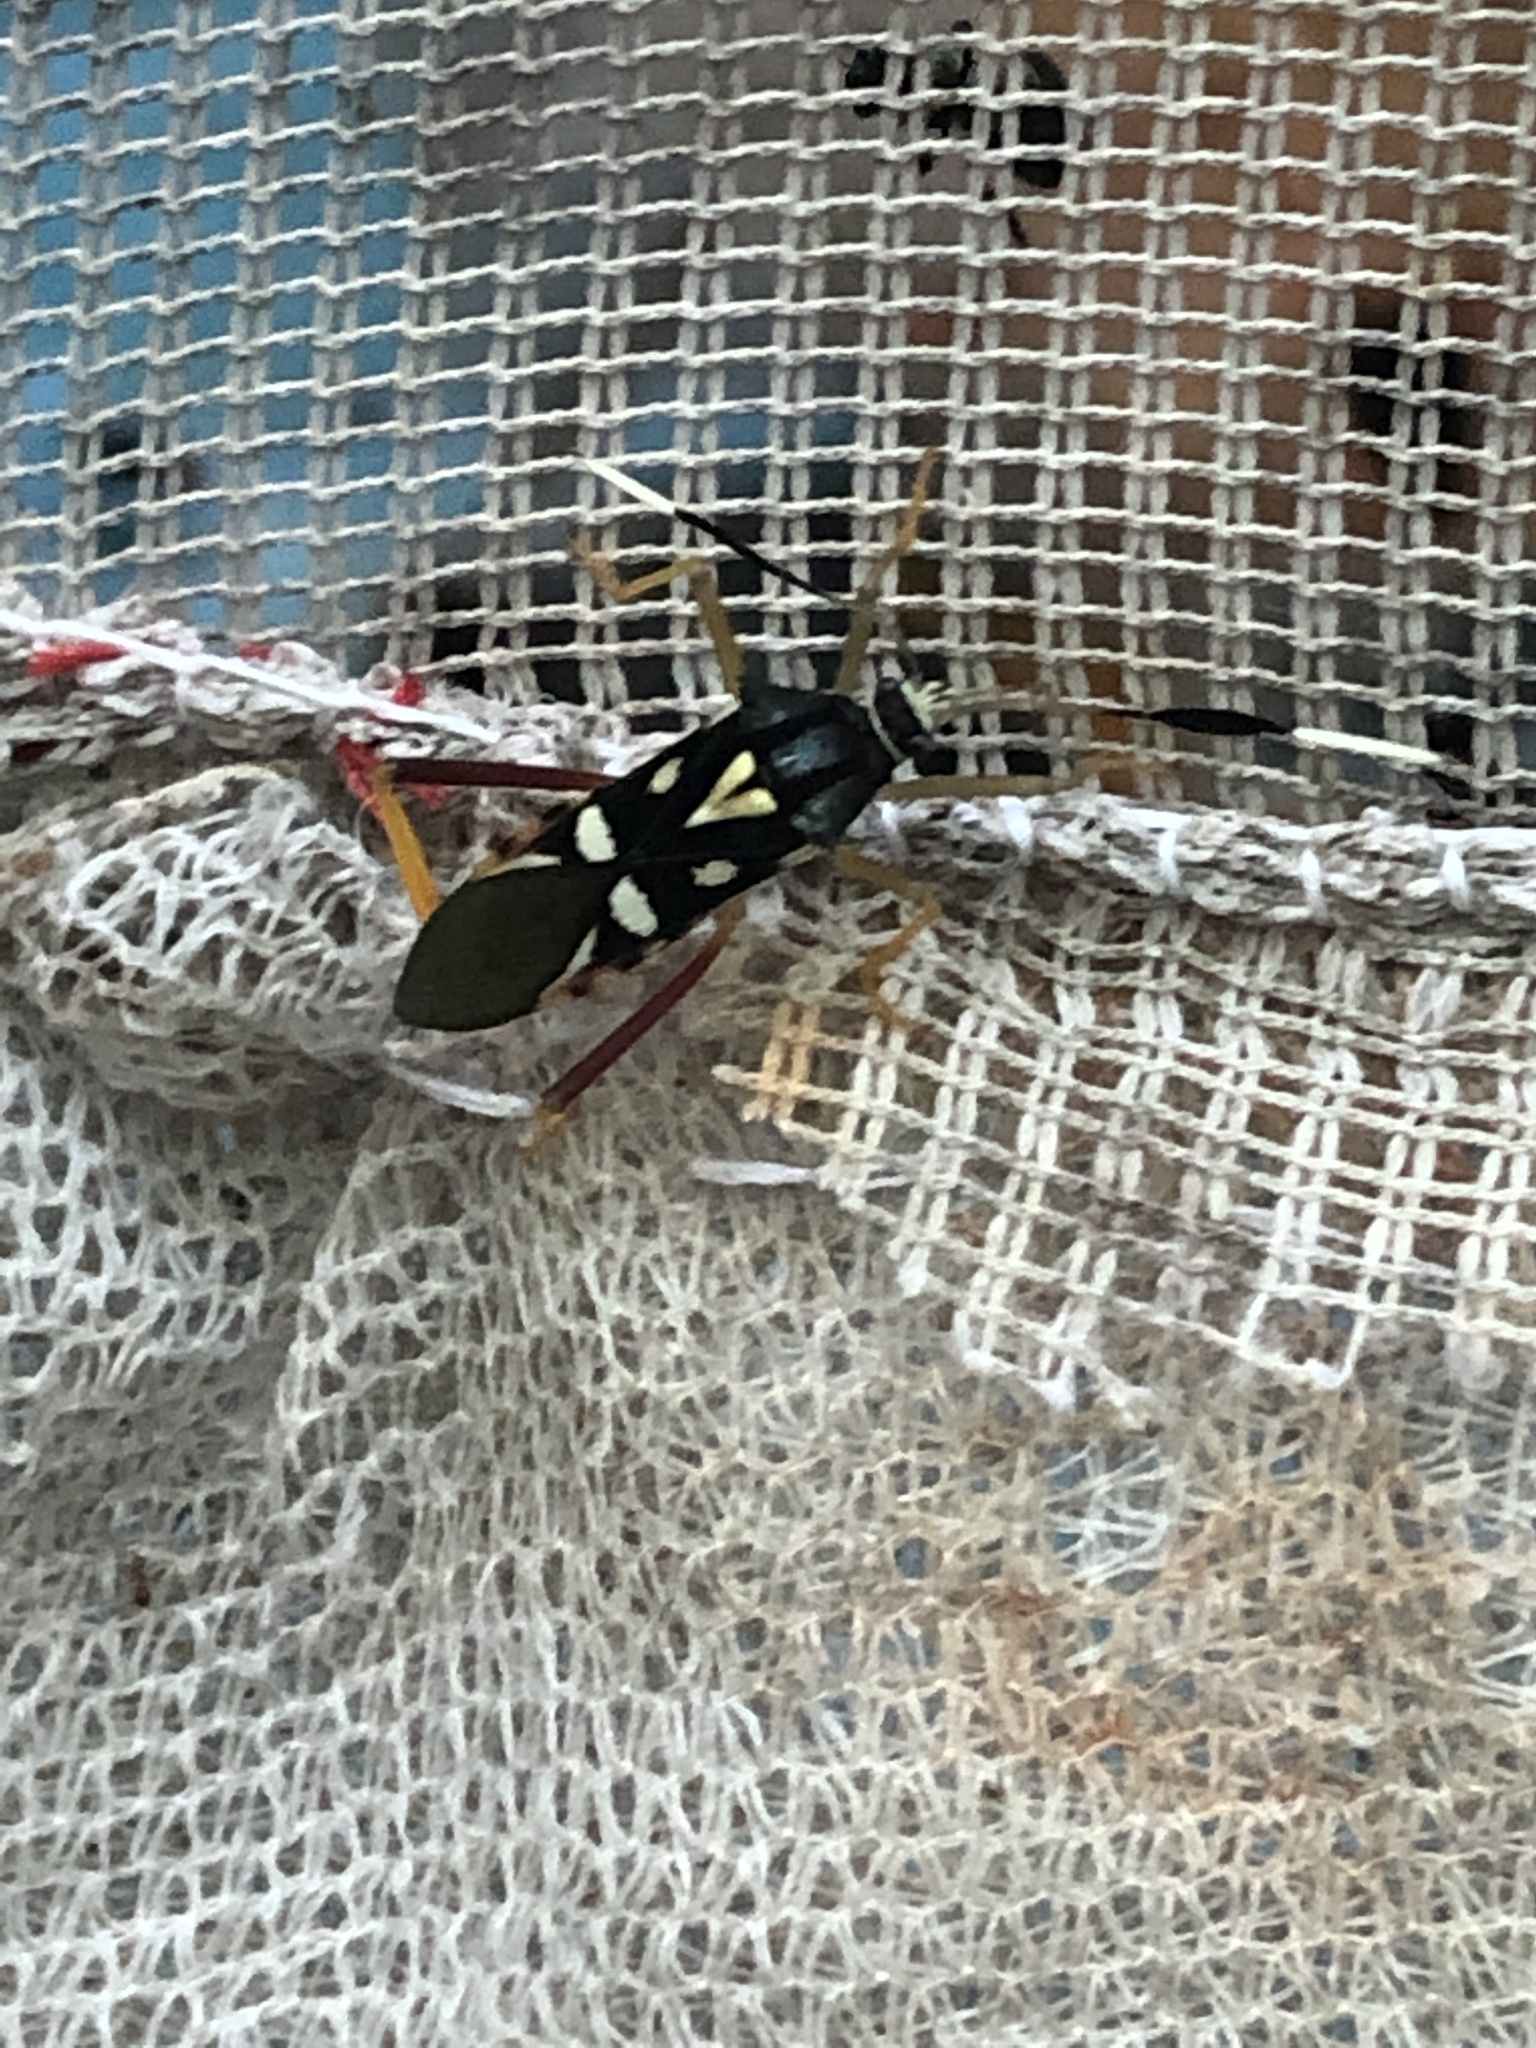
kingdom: Animalia
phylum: Arthropoda
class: Insecta
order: Hemiptera
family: Coreidae
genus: Baldus
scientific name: Baldus vinulus
